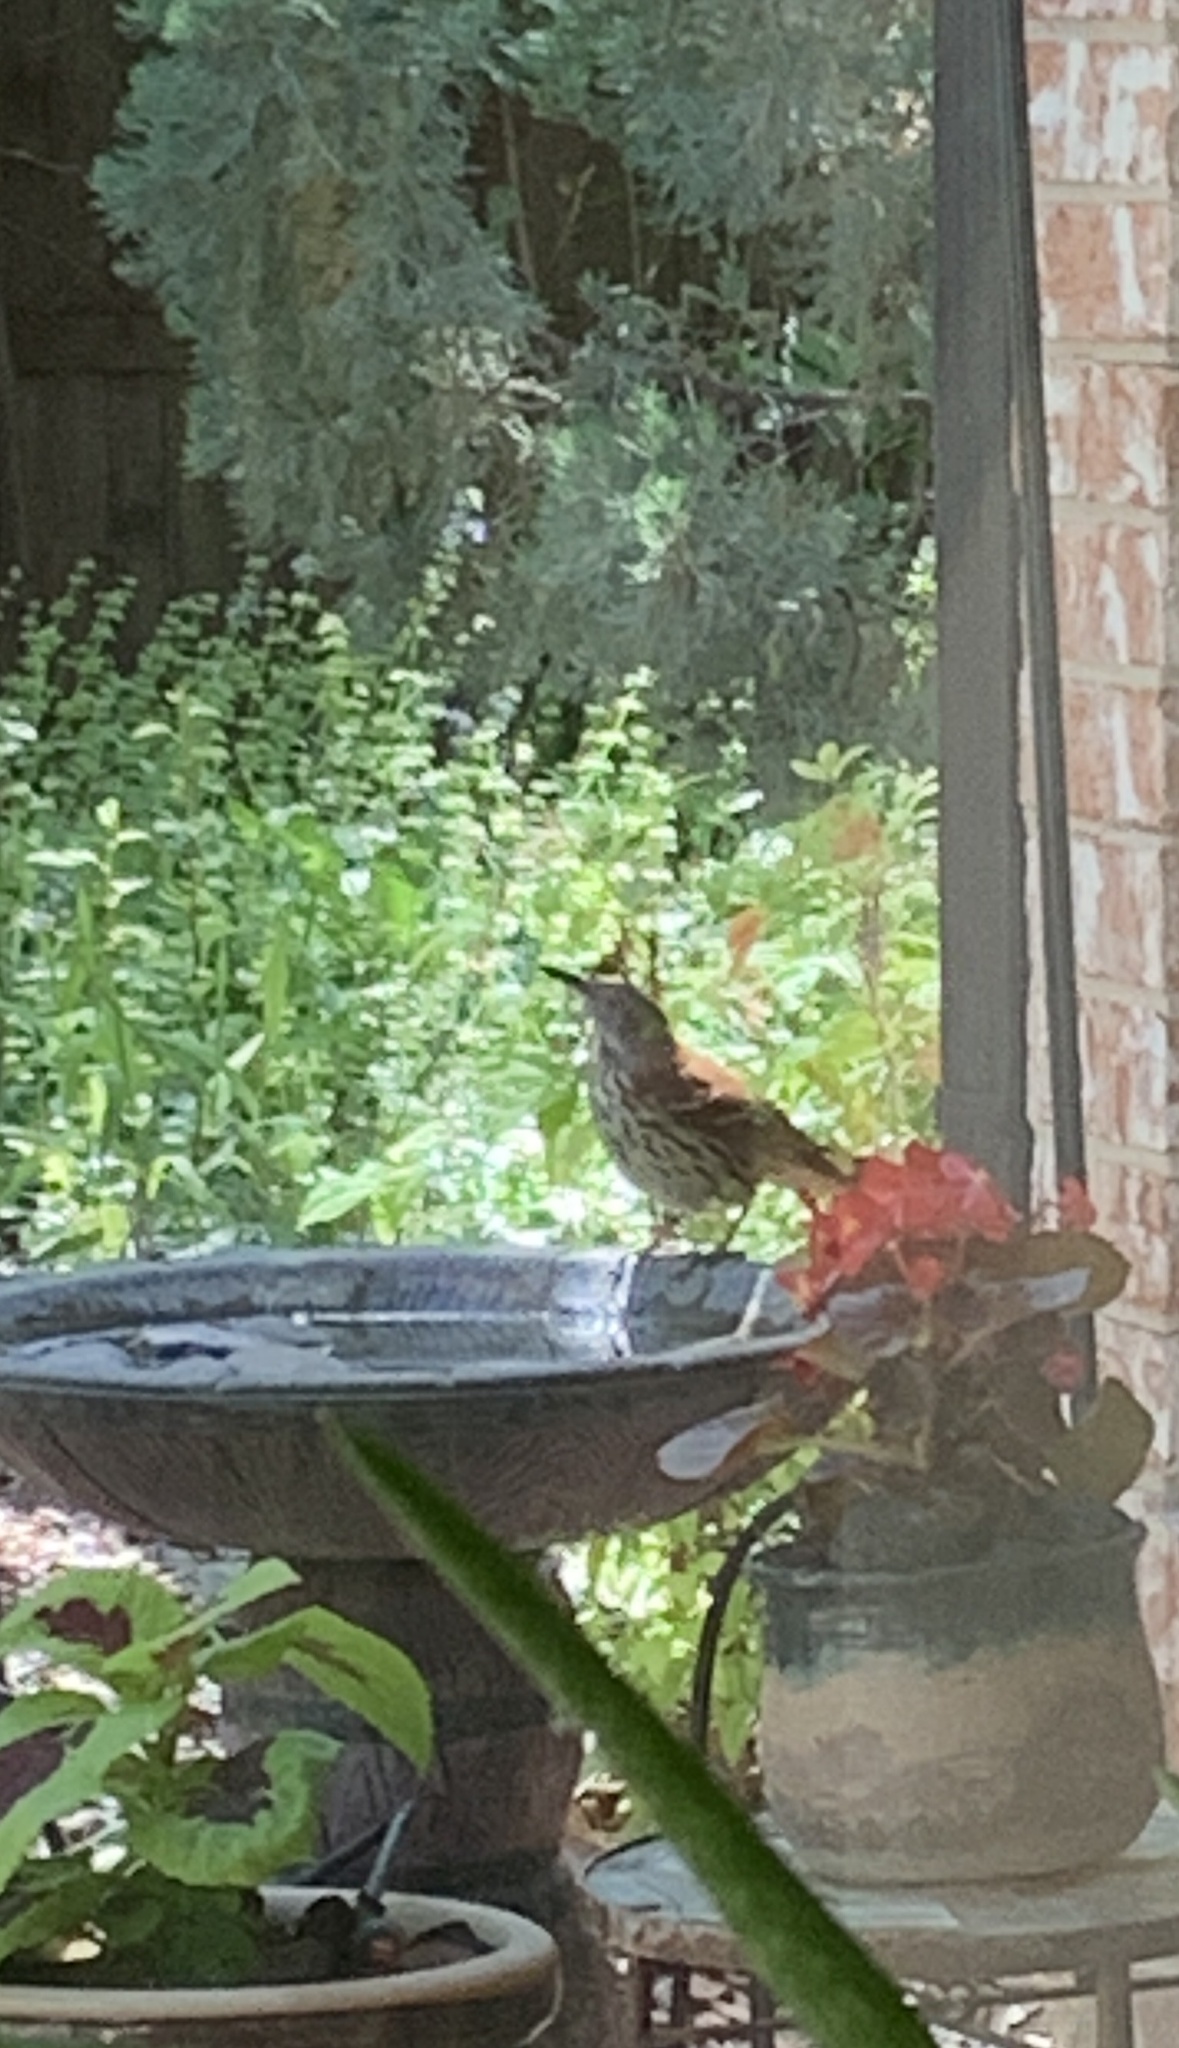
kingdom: Animalia
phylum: Chordata
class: Aves
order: Passeriformes
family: Mimidae
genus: Toxostoma
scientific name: Toxostoma rufum
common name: Brown thrasher
